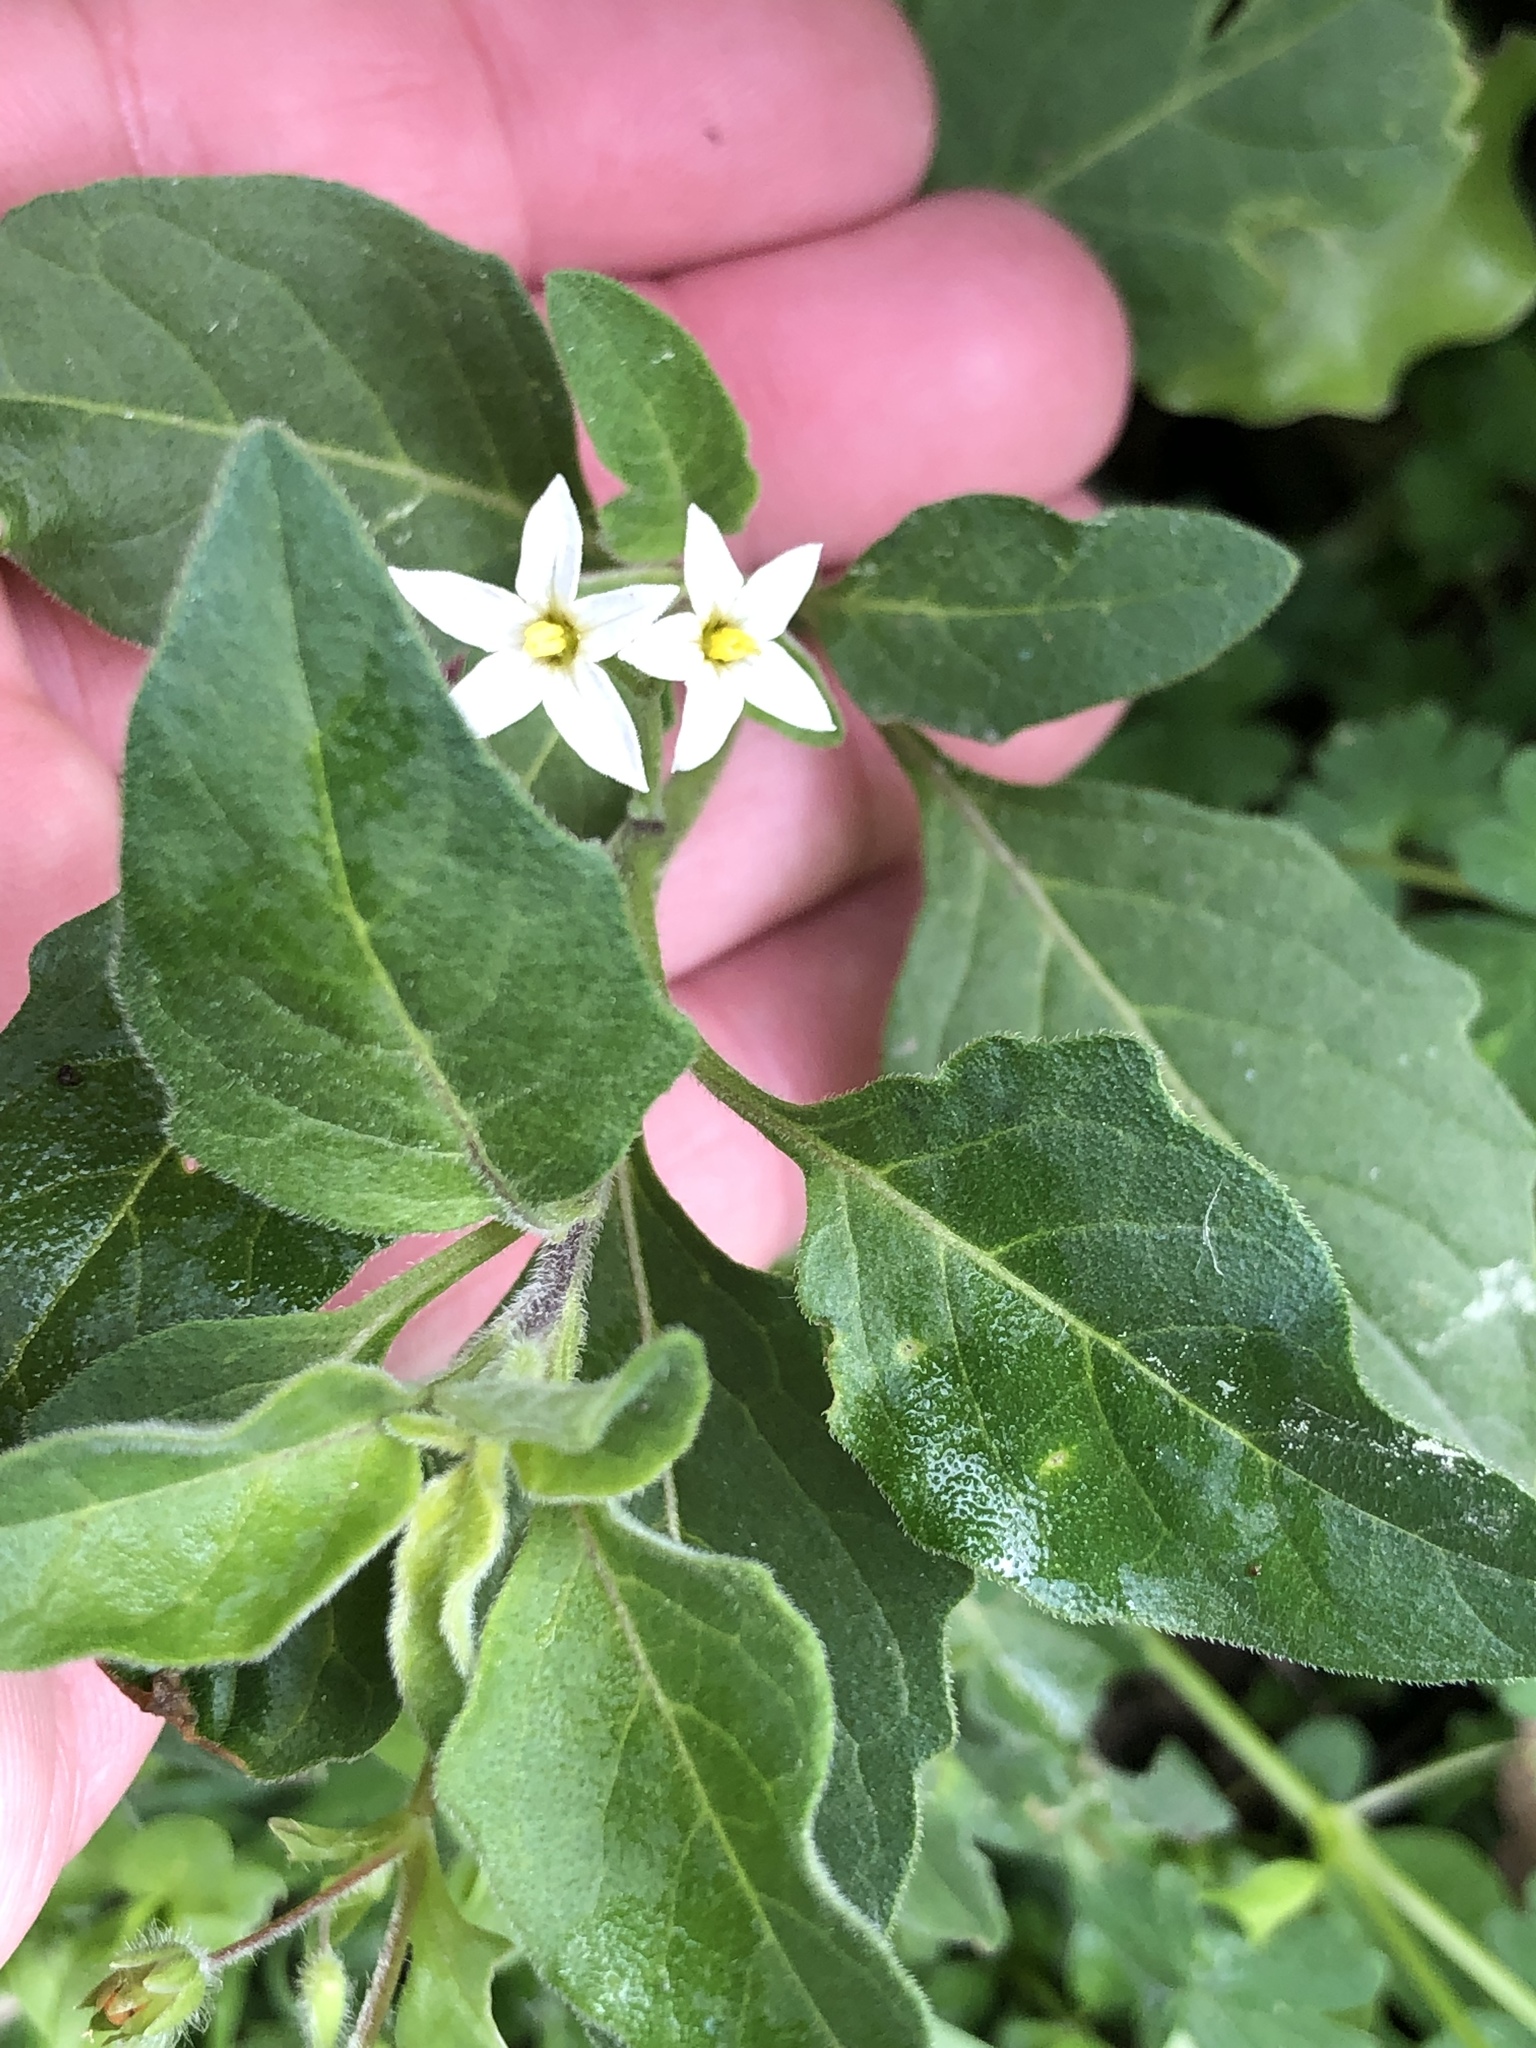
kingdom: Plantae
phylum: Tracheophyta
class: Magnoliopsida
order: Solanales
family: Solanaceae
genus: Solanum
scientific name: Solanum chenopodioides
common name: Tall nightshade
